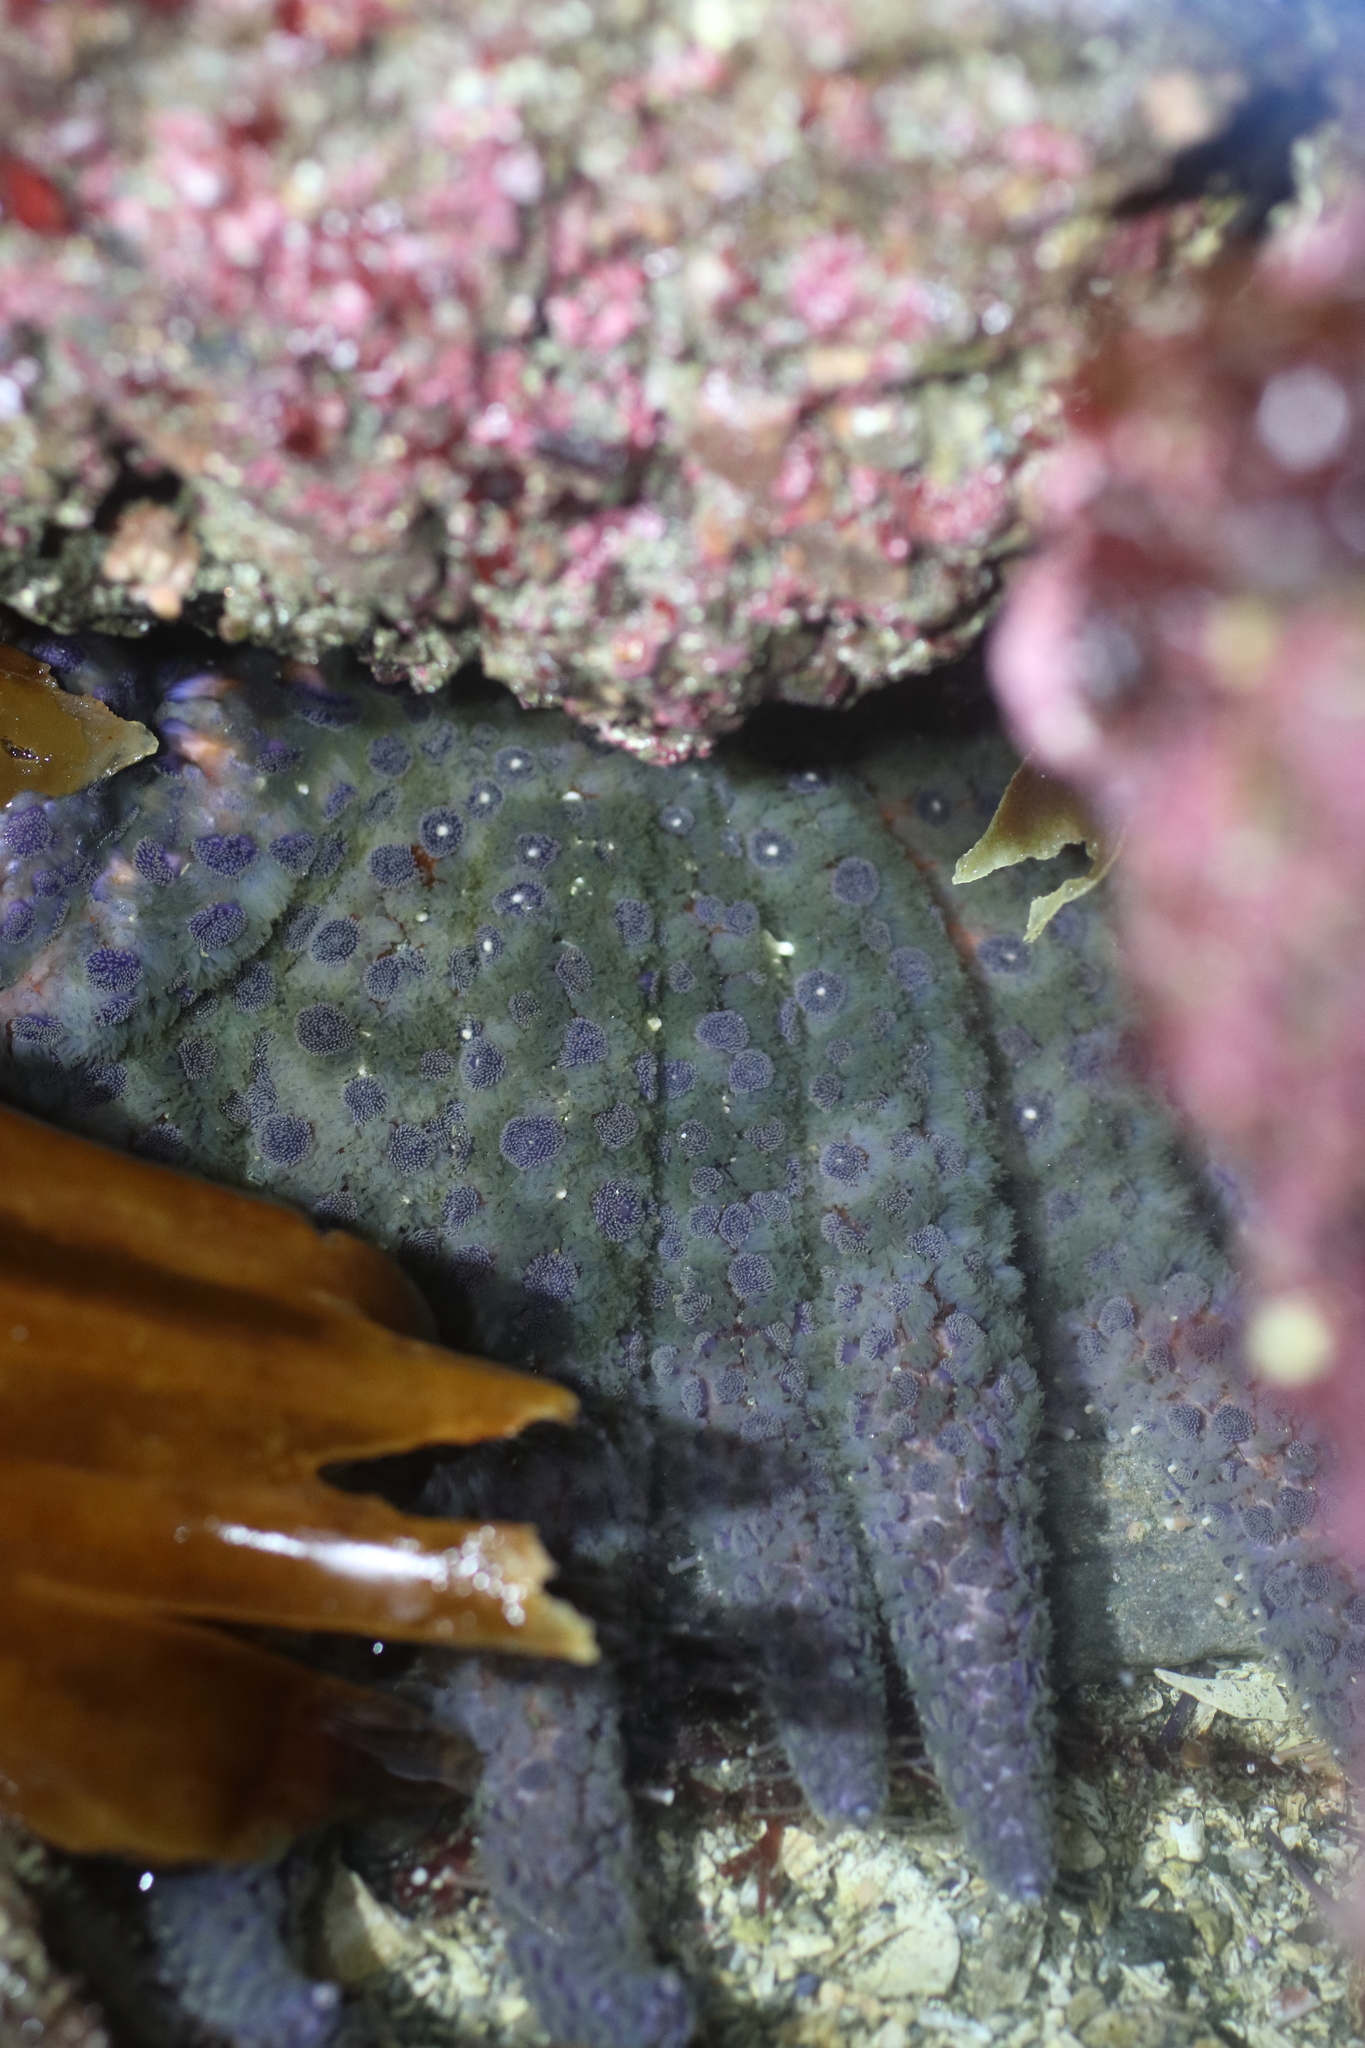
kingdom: Animalia
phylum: Echinodermata
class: Asteroidea
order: Forcipulatida
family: Asteriidae
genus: Pycnopodia
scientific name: Pycnopodia helianthoides
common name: Rag mop
